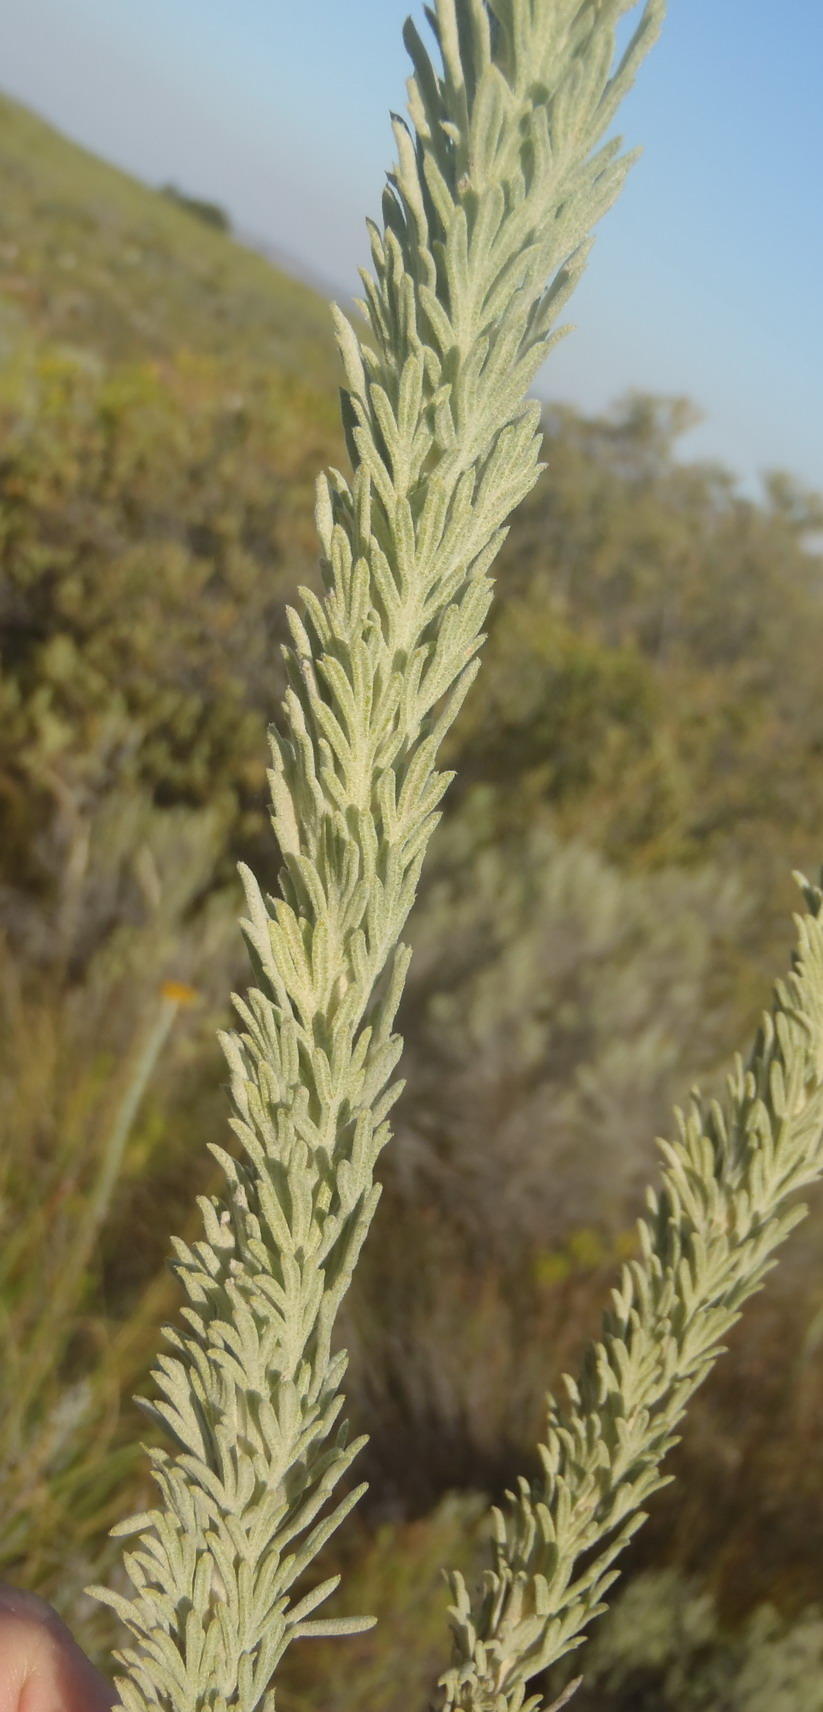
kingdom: Plantae
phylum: Tracheophyta
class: Magnoliopsida
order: Asterales
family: Asteraceae
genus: Athanasia
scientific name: Athanasia pinnata
